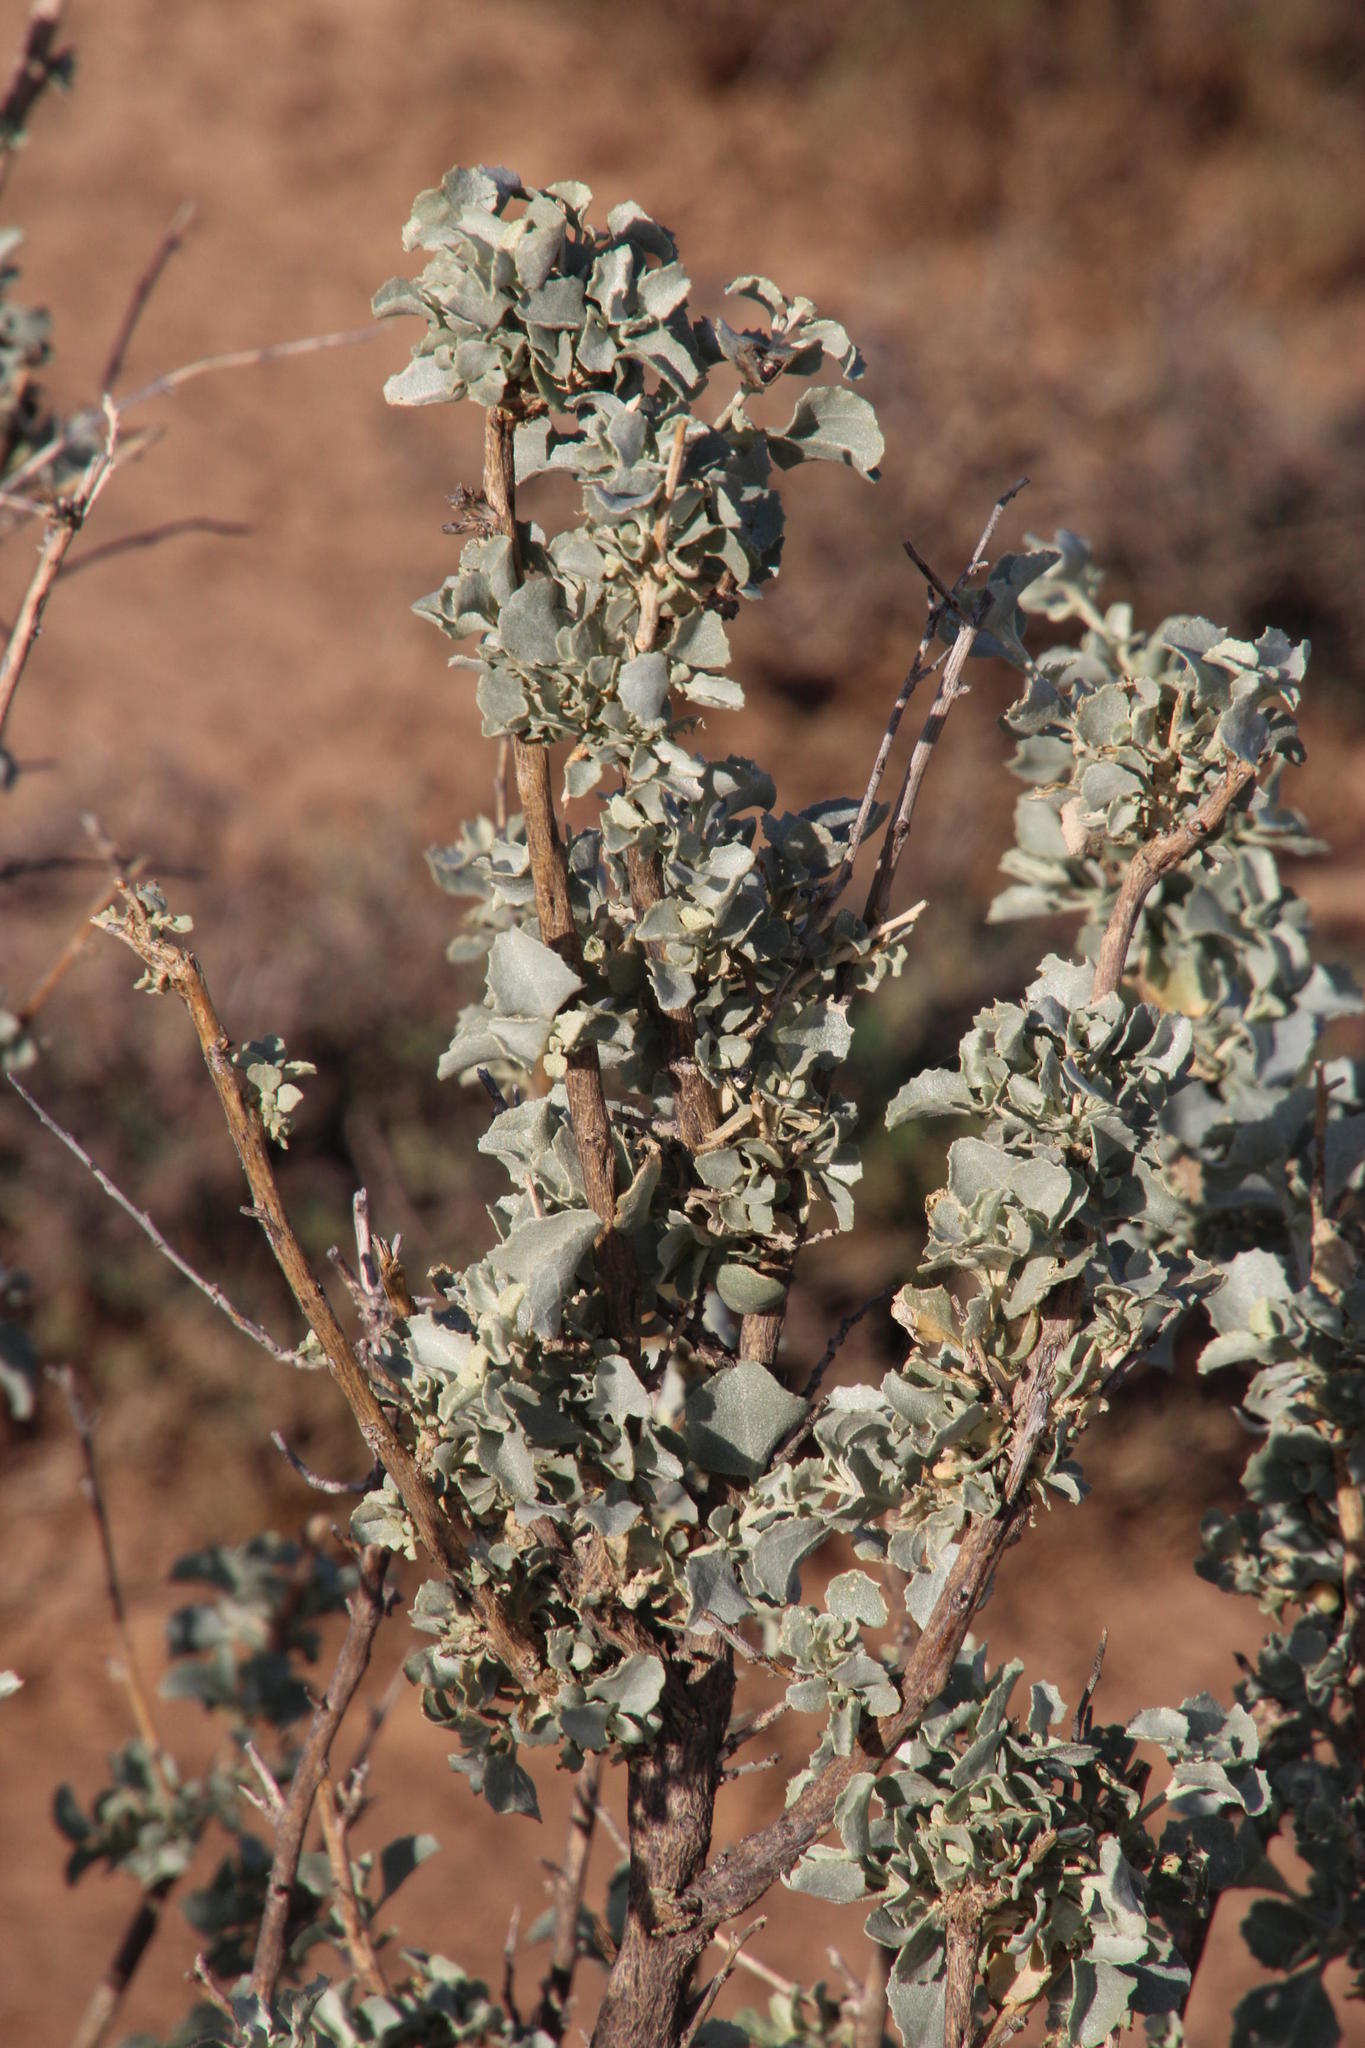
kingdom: Plantae
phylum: Tracheophyta
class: Magnoliopsida
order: Caryophyllales
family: Amaranthaceae
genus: Atriplex
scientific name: Atriplex nummularia
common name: Bluegreen saltbush
